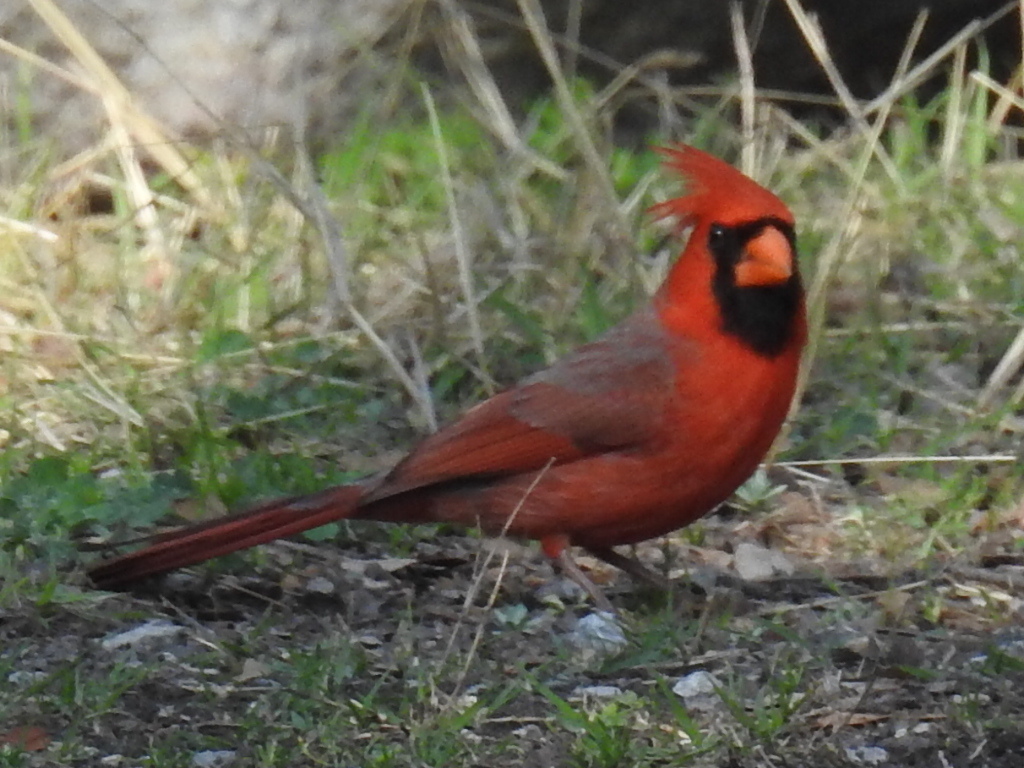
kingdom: Animalia
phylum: Chordata
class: Aves
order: Passeriformes
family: Cardinalidae
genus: Cardinalis
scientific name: Cardinalis cardinalis
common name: Northern cardinal
